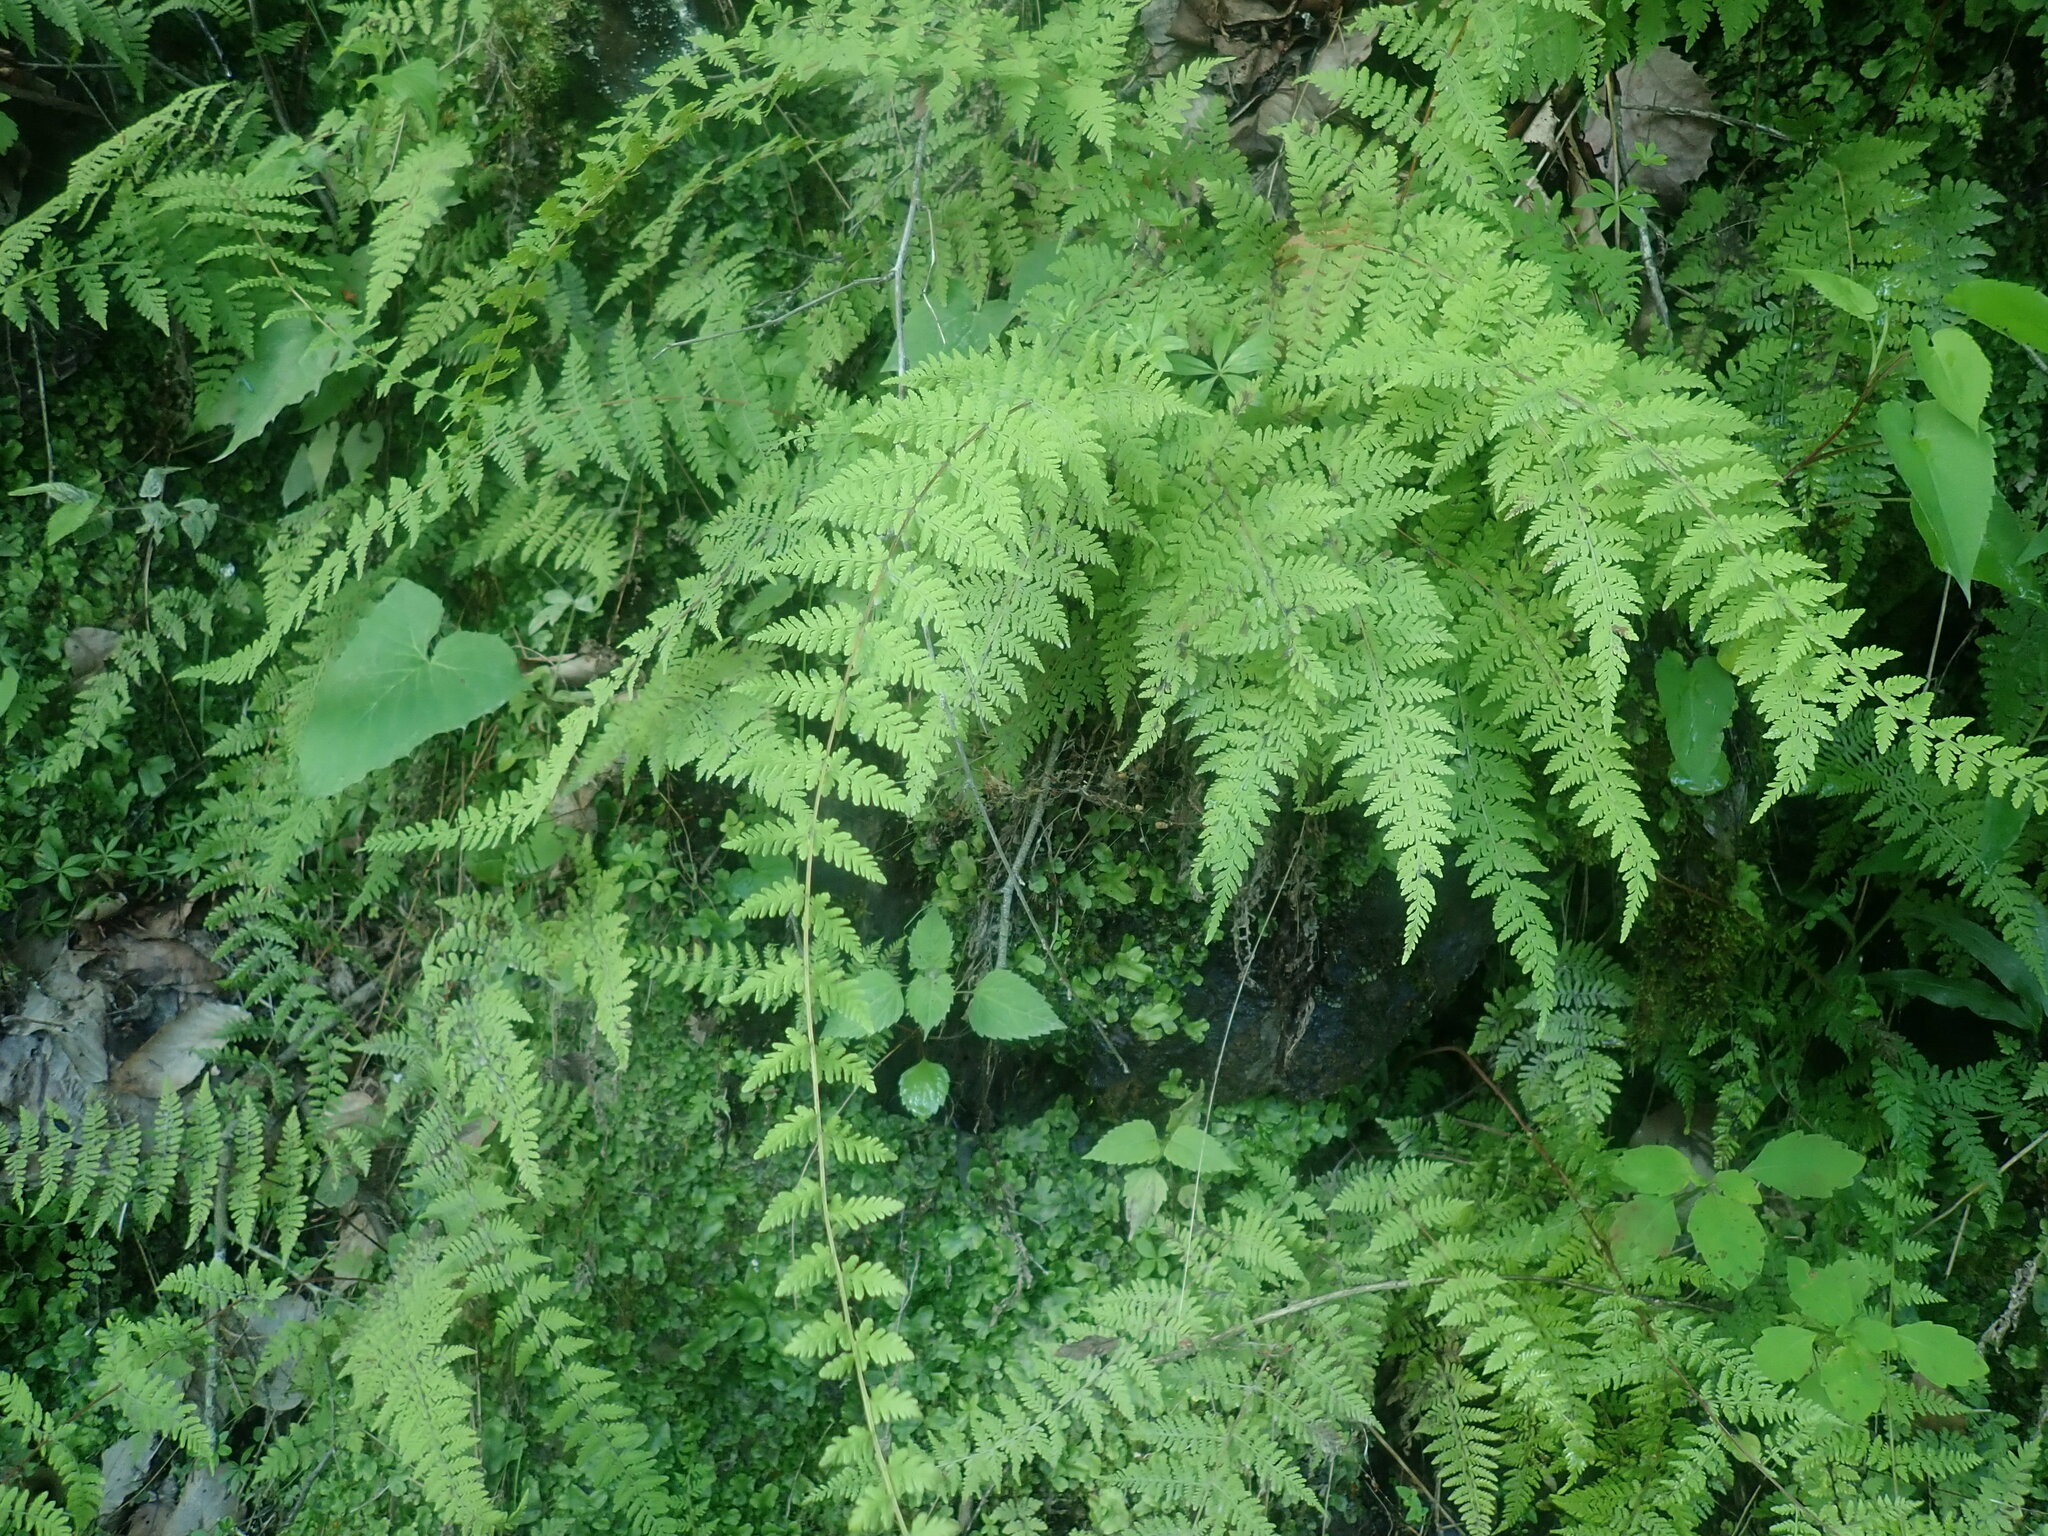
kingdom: Plantae
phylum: Tracheophyta
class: Polypodiopsida
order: Polypodiales
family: Cystopteridaceae
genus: Cystopteris
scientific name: Cystopteris bulbifera
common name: Bulblet bladder fern
